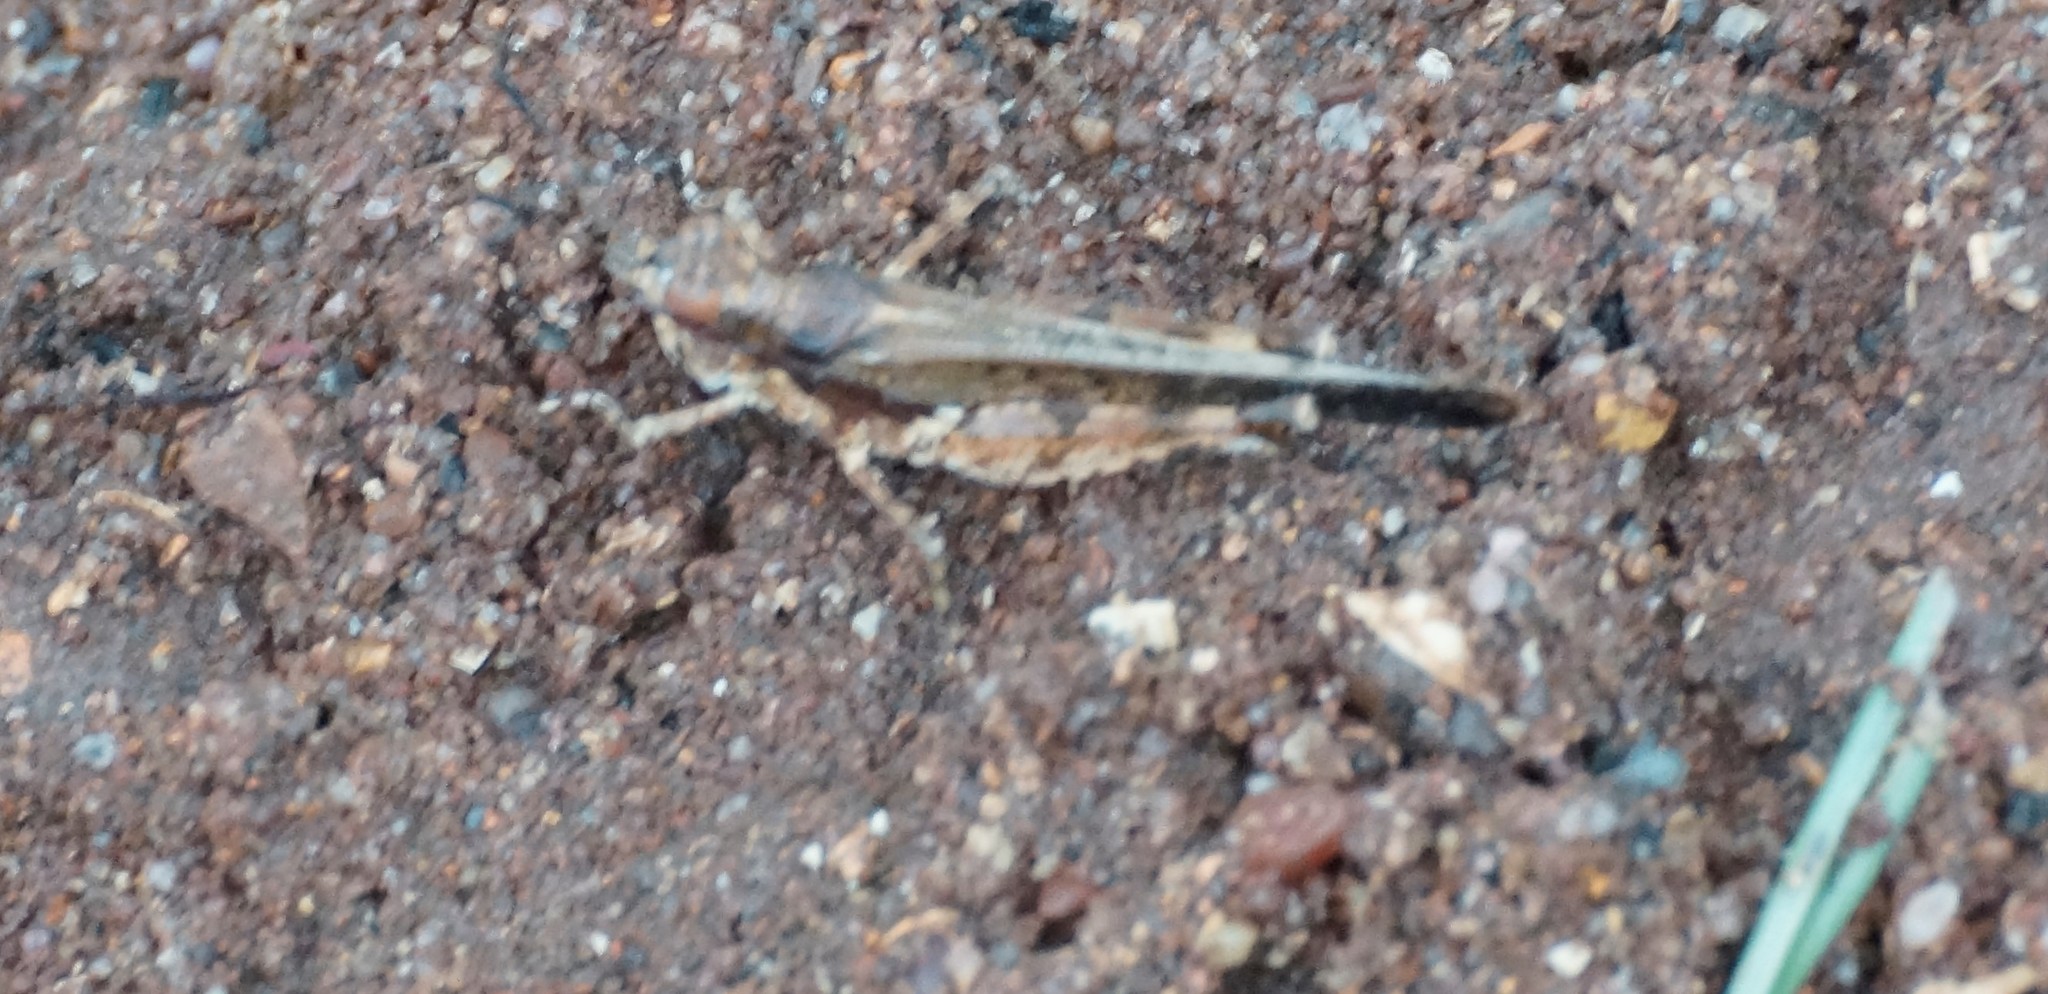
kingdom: Animalia
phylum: Arthropoda
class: Insecta
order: Orthoptera
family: Acrididae
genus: Pycnostictus
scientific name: Pycnostictus seriatus
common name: Common bandwing
